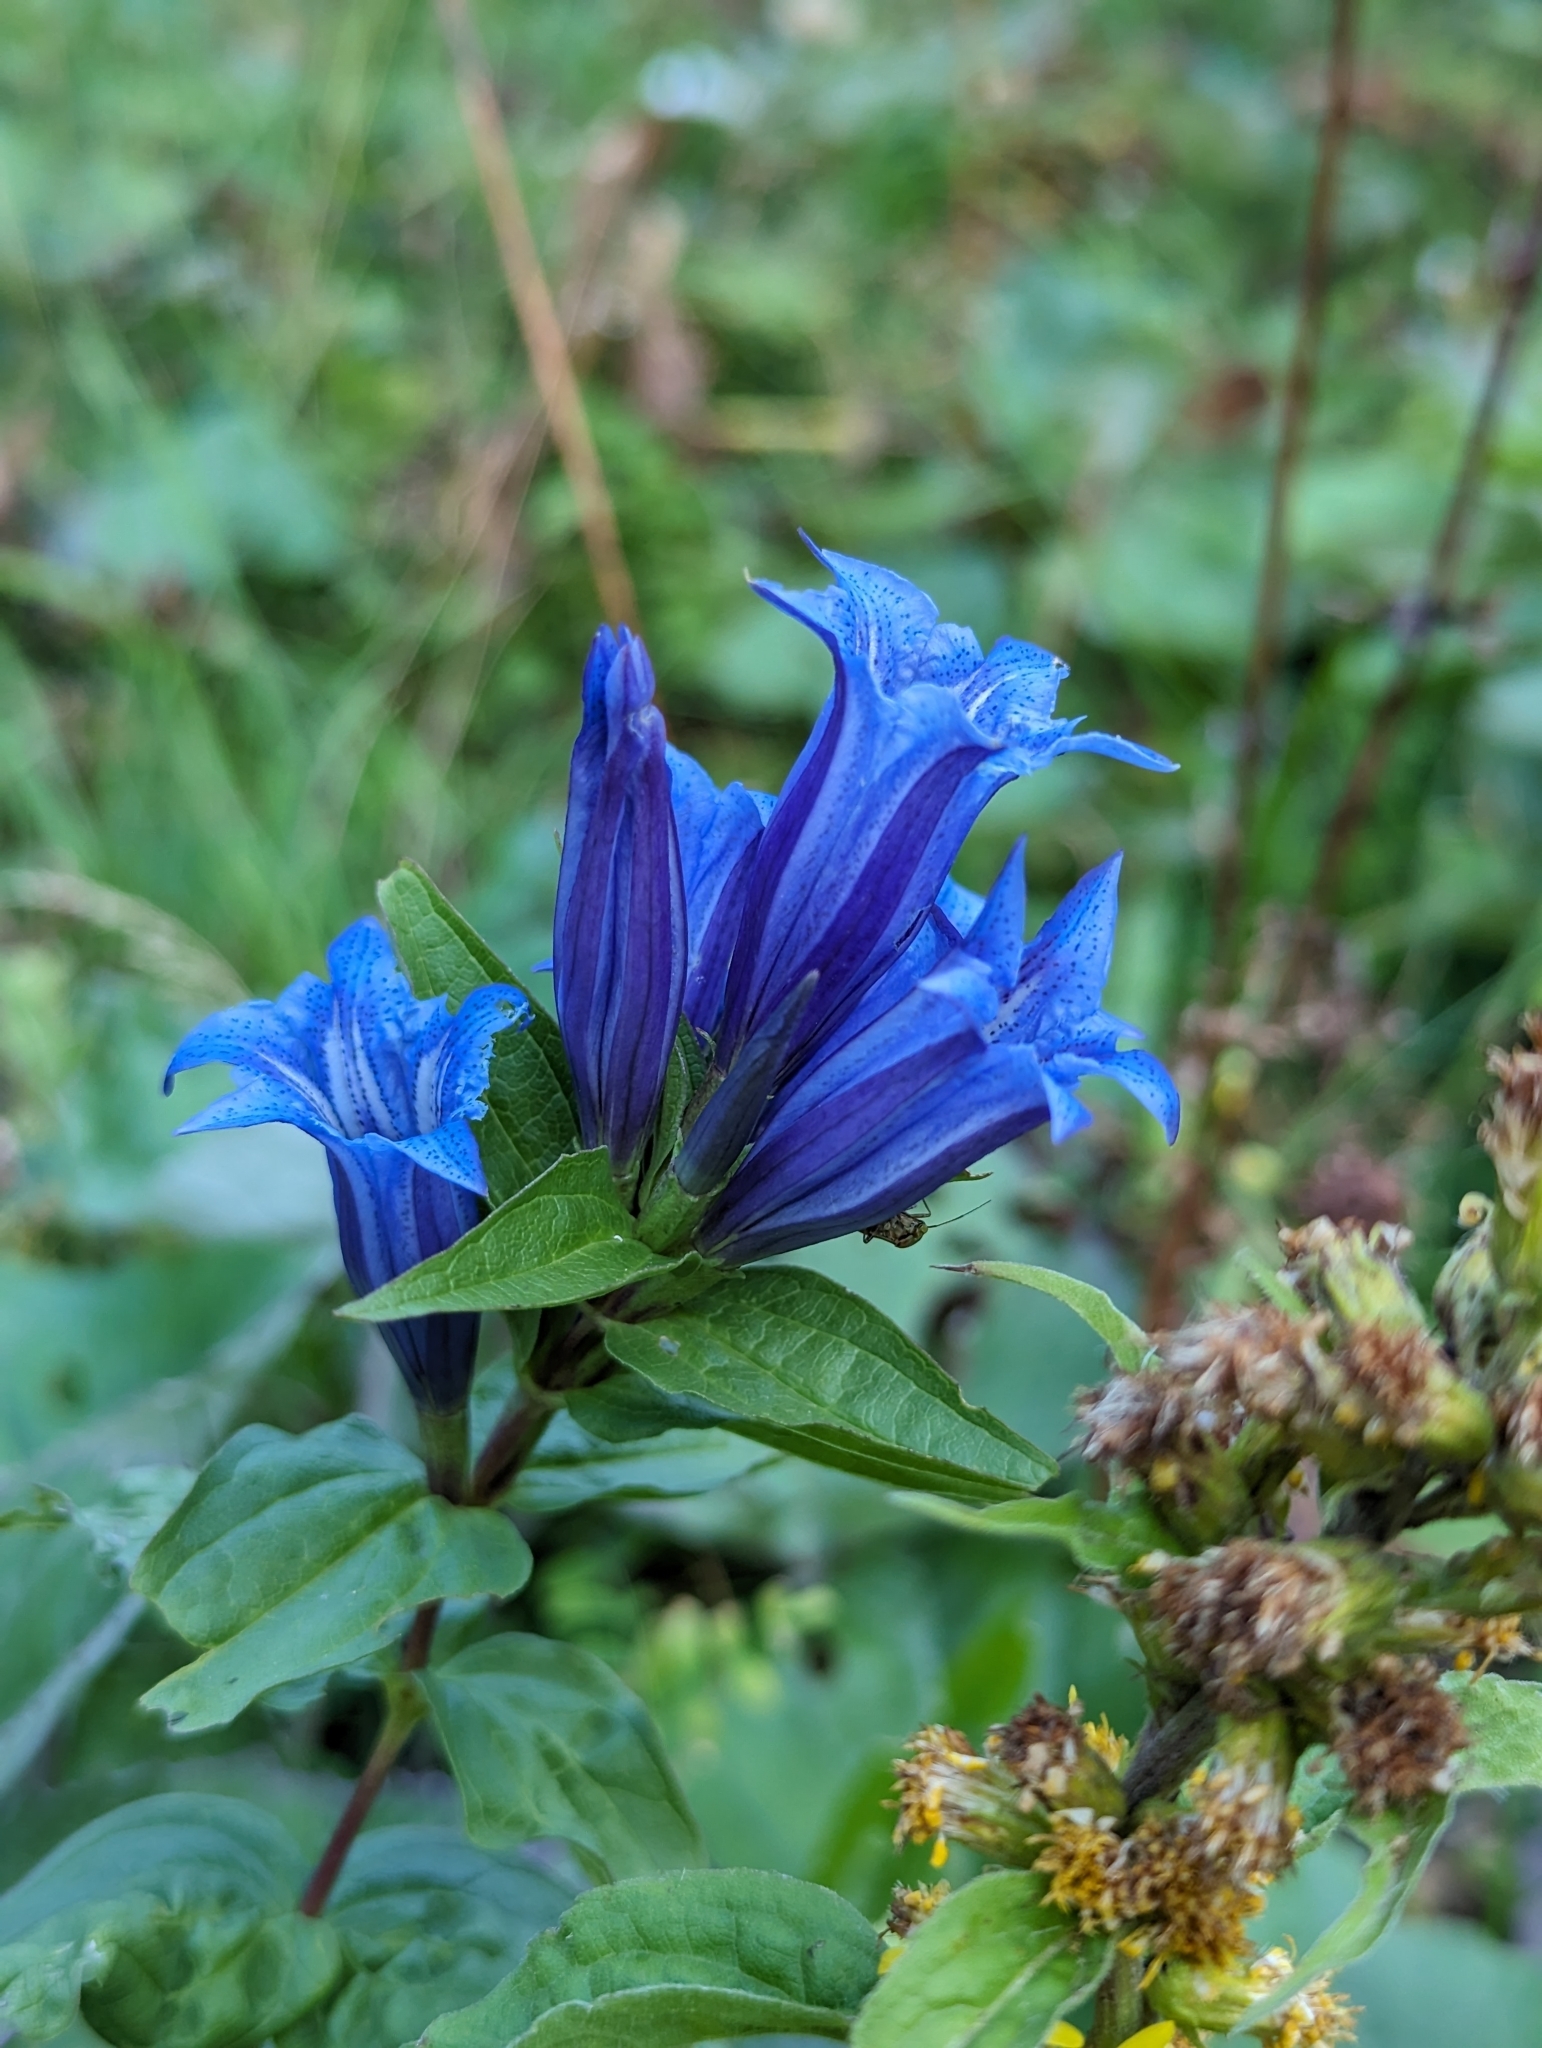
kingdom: Plantae
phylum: Tracheophyta
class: Magnoliopsida
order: Gentianales
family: Gentianaceae
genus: Gentiana
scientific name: Gentiana asclepiadea
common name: Willow gentian
